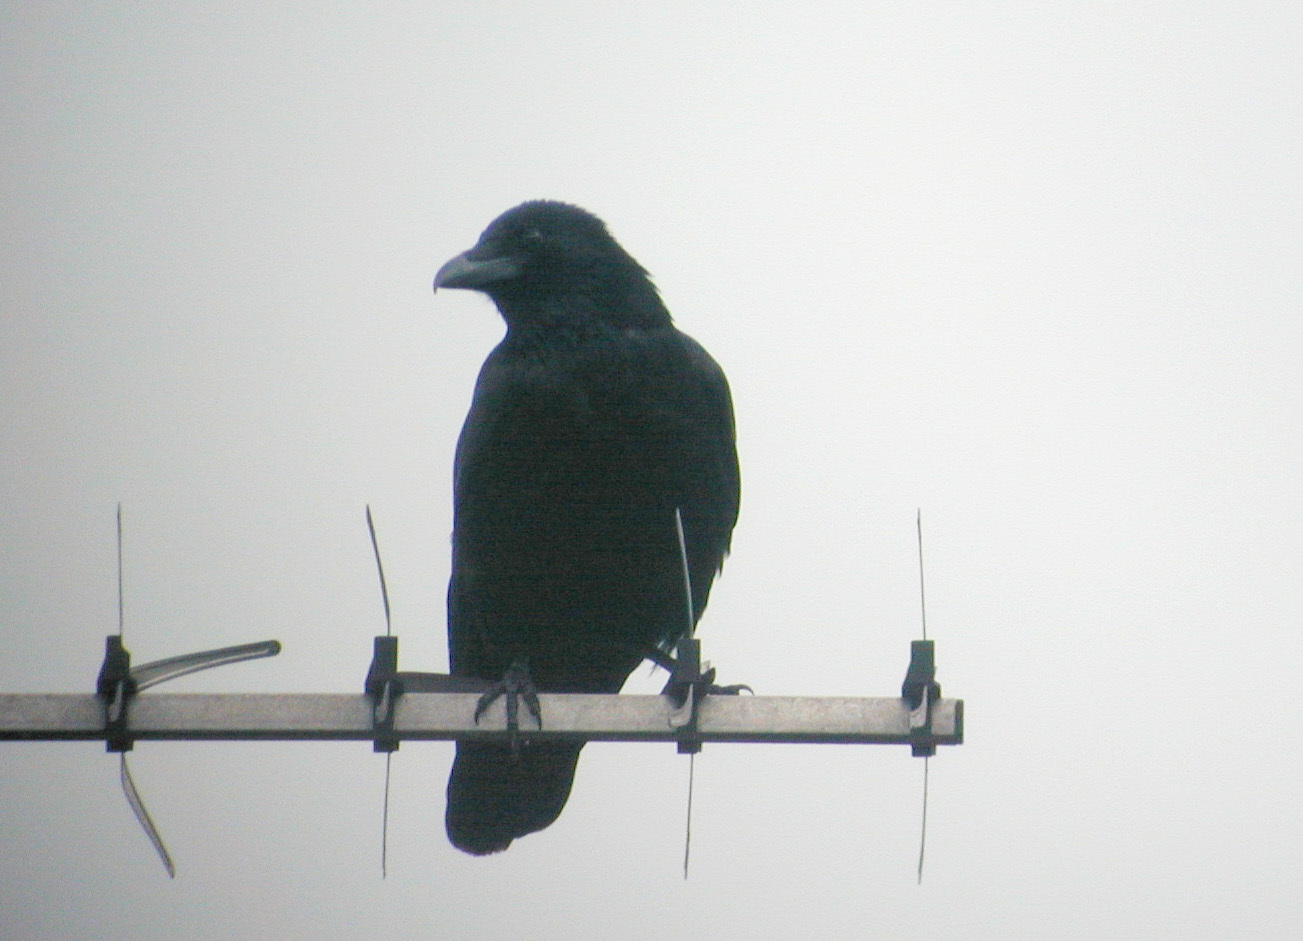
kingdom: Animalia
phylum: Chordata
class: Aves
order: Passeriformes
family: Corvidae
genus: Corvus
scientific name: Corvus corone
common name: Carrion crow
